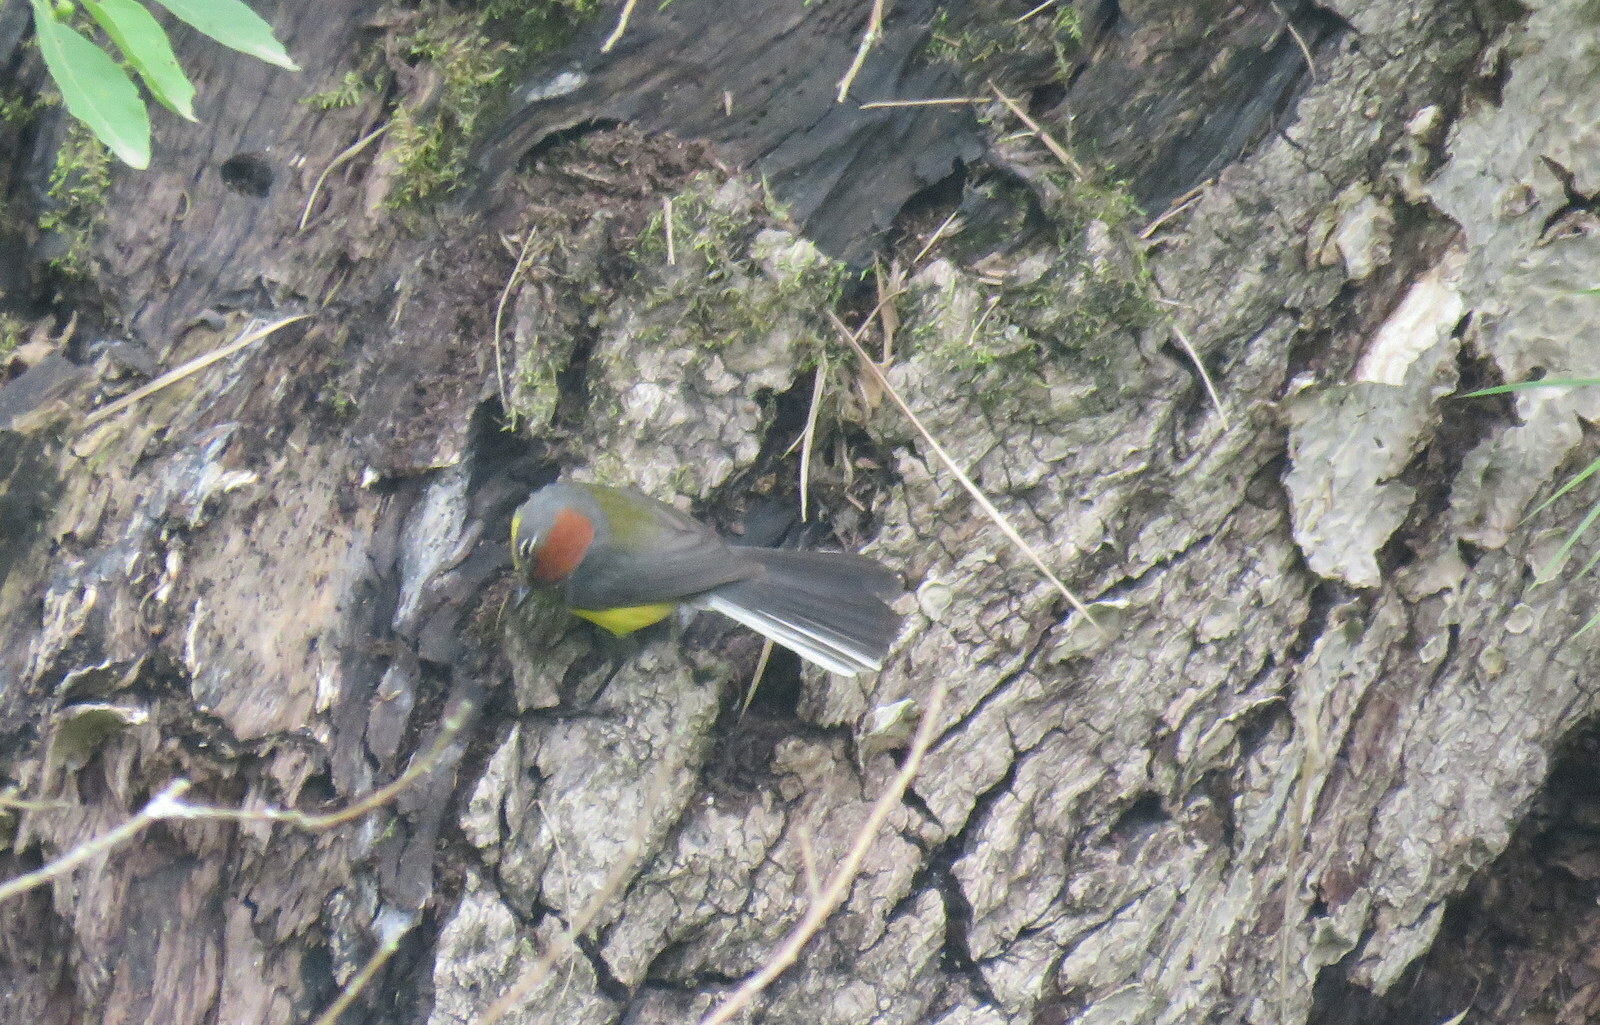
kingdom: Animalia
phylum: Chordata
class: Aves
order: Passeriformes
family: Parulidae
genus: Myioborus
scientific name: Myioborus brunniceps
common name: Brown-capped whitestart
